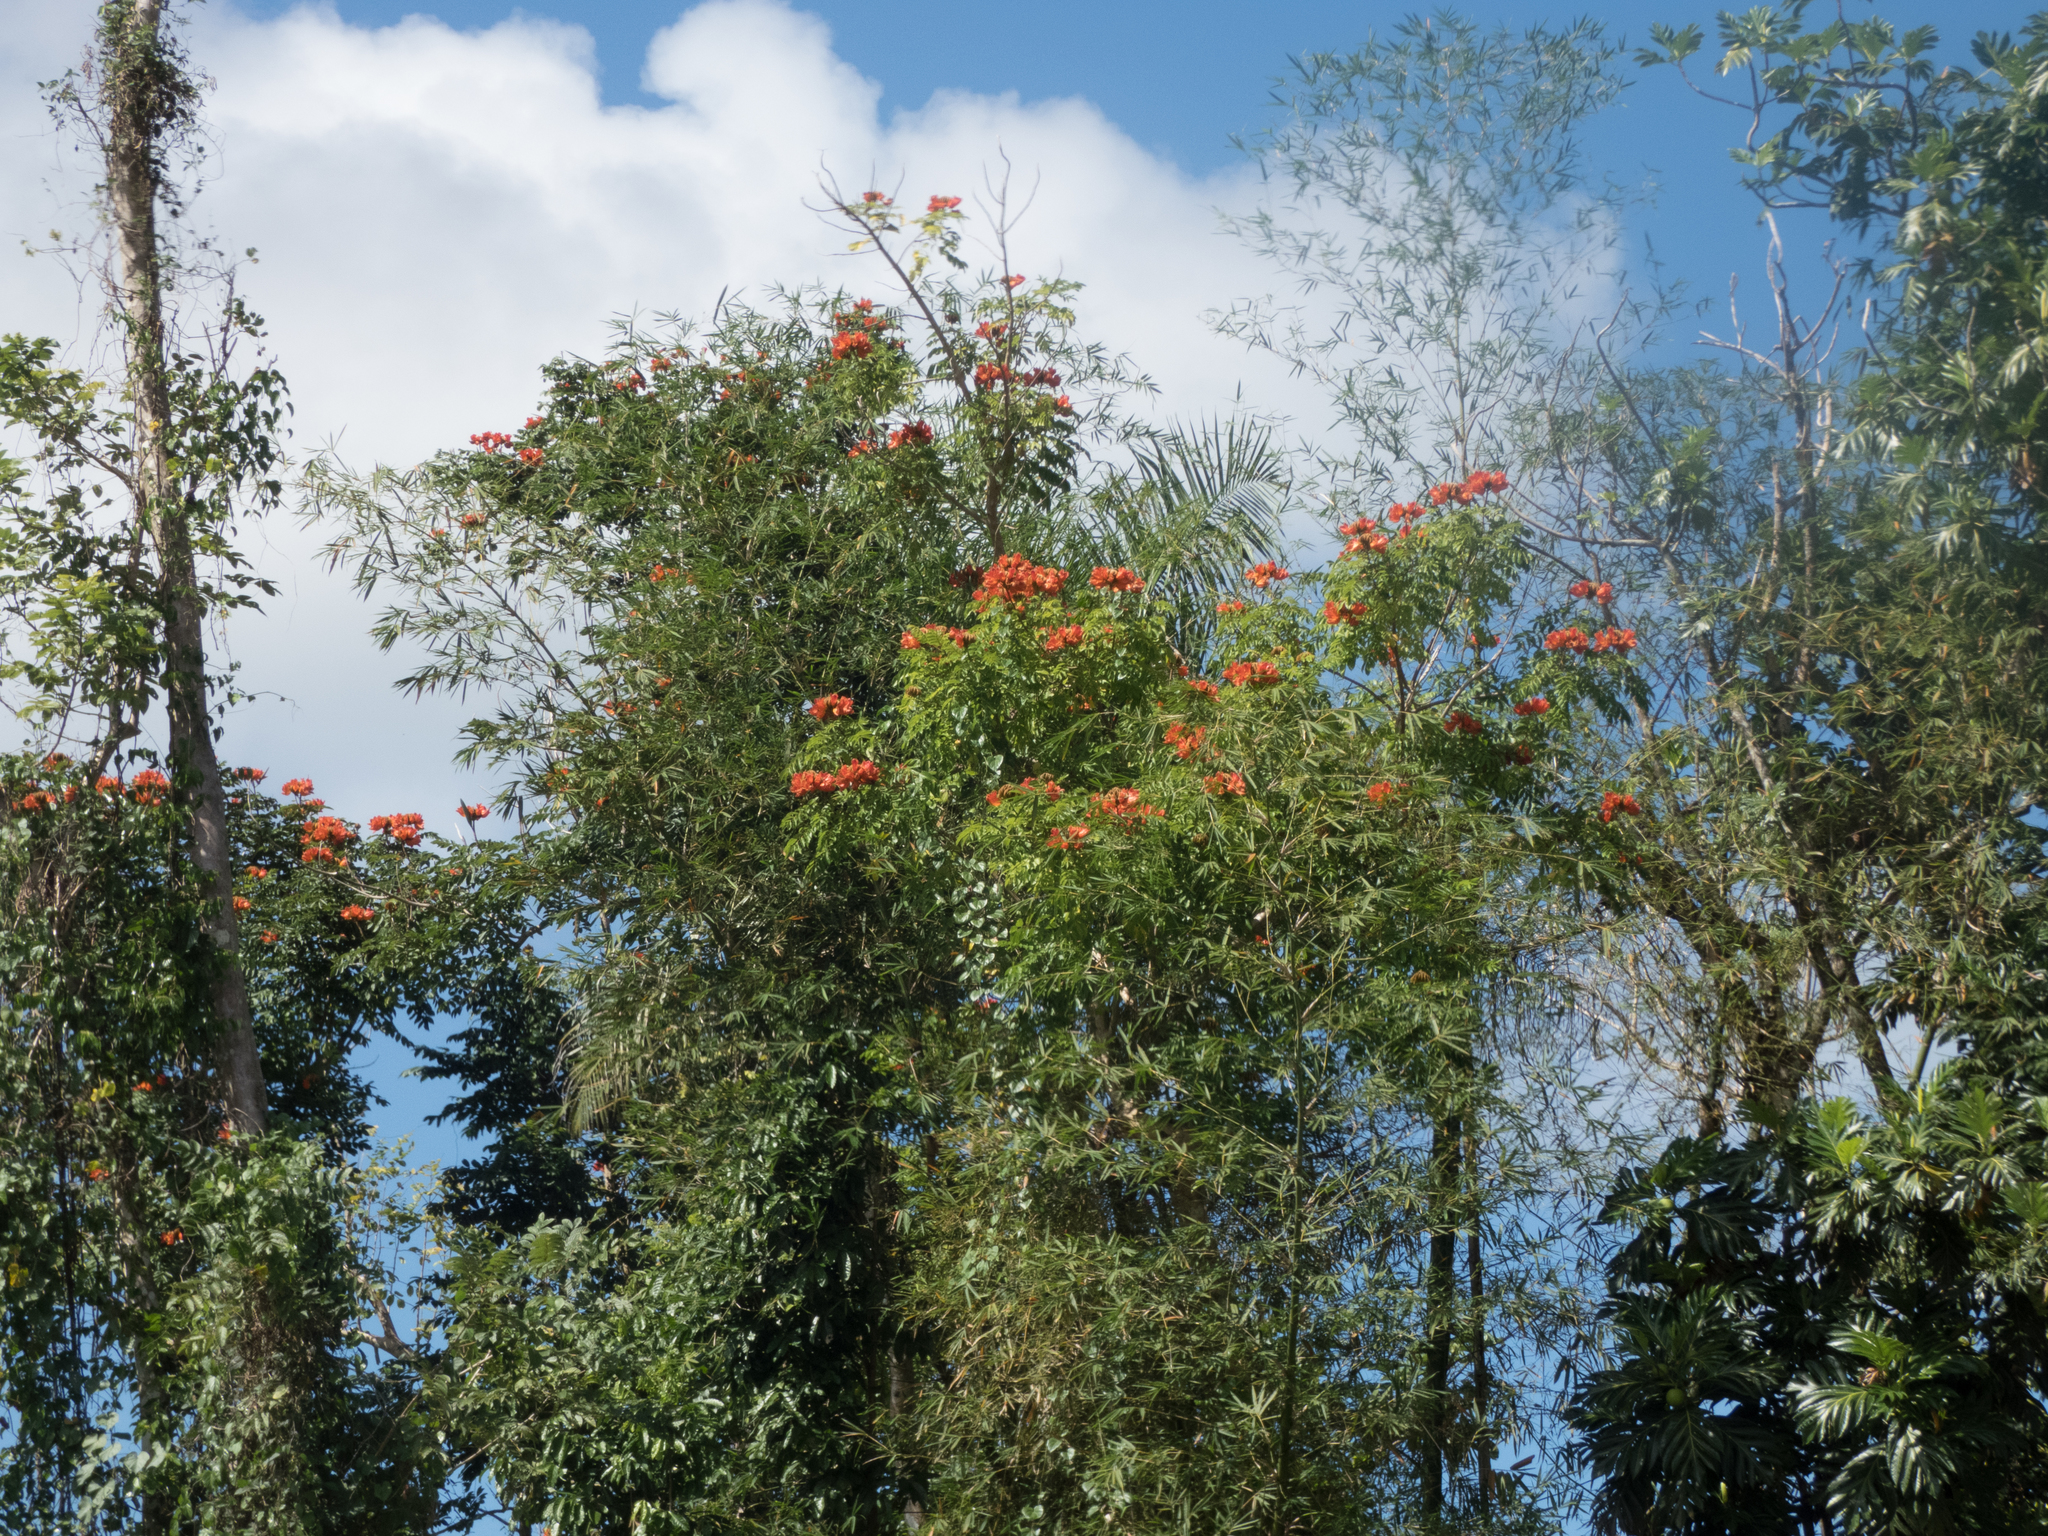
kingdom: Plantae
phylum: Tracheophyta
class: Magnoliopsida
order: Lamiales
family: Bignoniaceae
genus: Spathodea
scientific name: Spathodea campanulata
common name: African tuliptree
